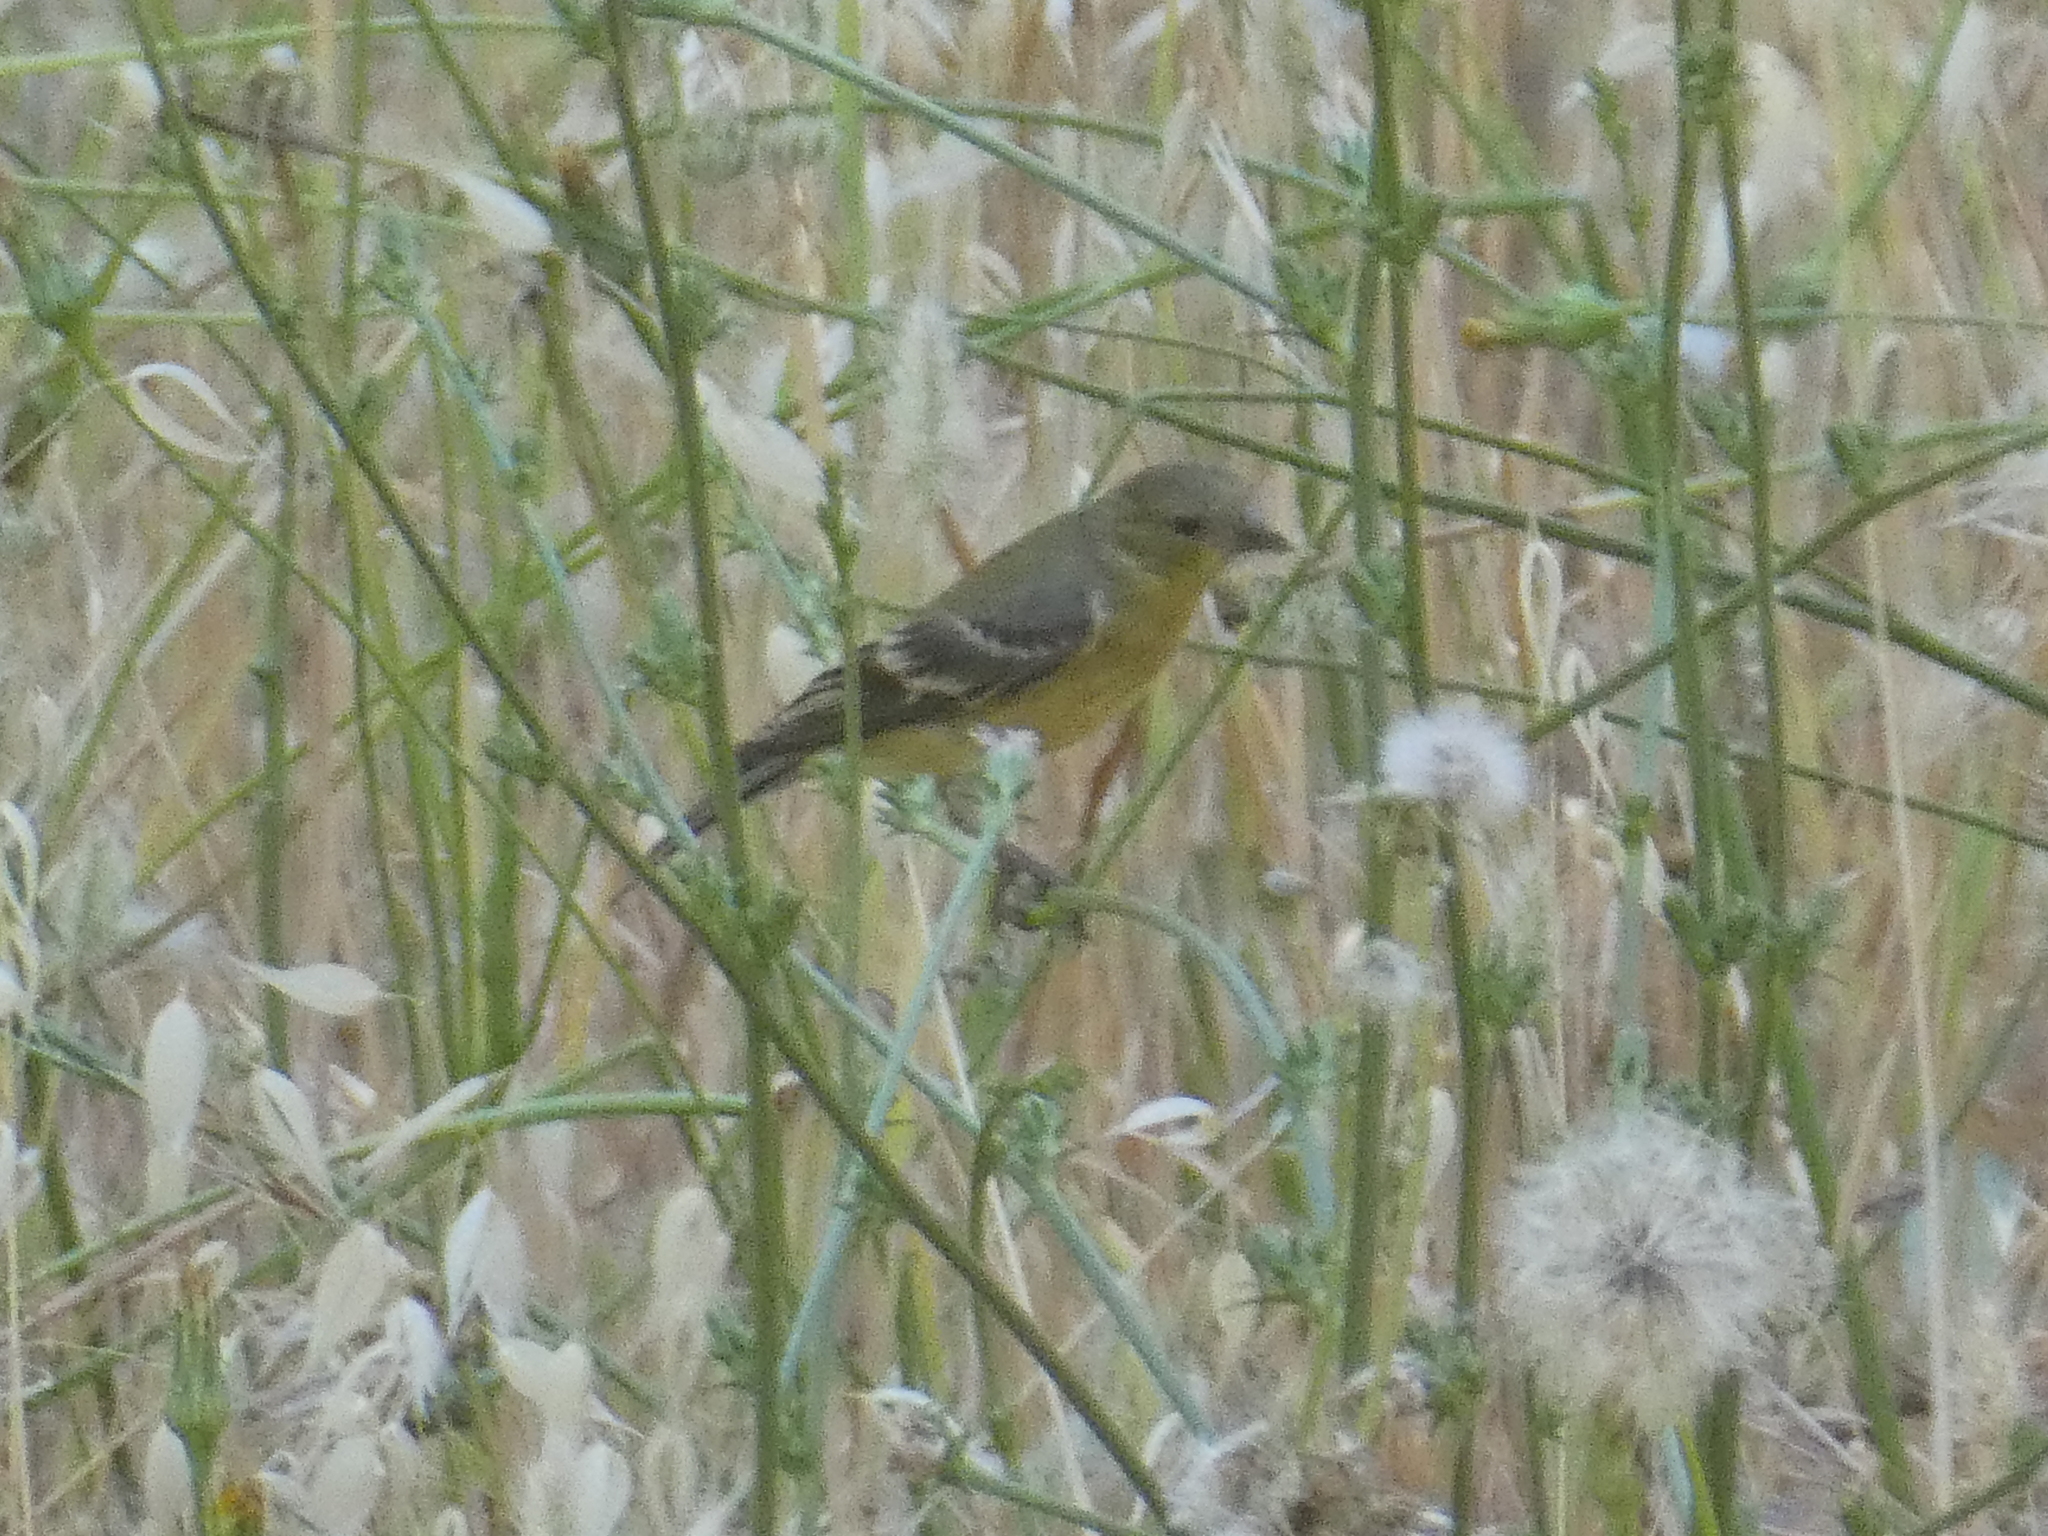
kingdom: Animalia
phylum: Chordata
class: Aves
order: Passeriformes
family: Fringillidae
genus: Spinus
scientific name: Spinus psaltria
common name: Lesser goldfinch
